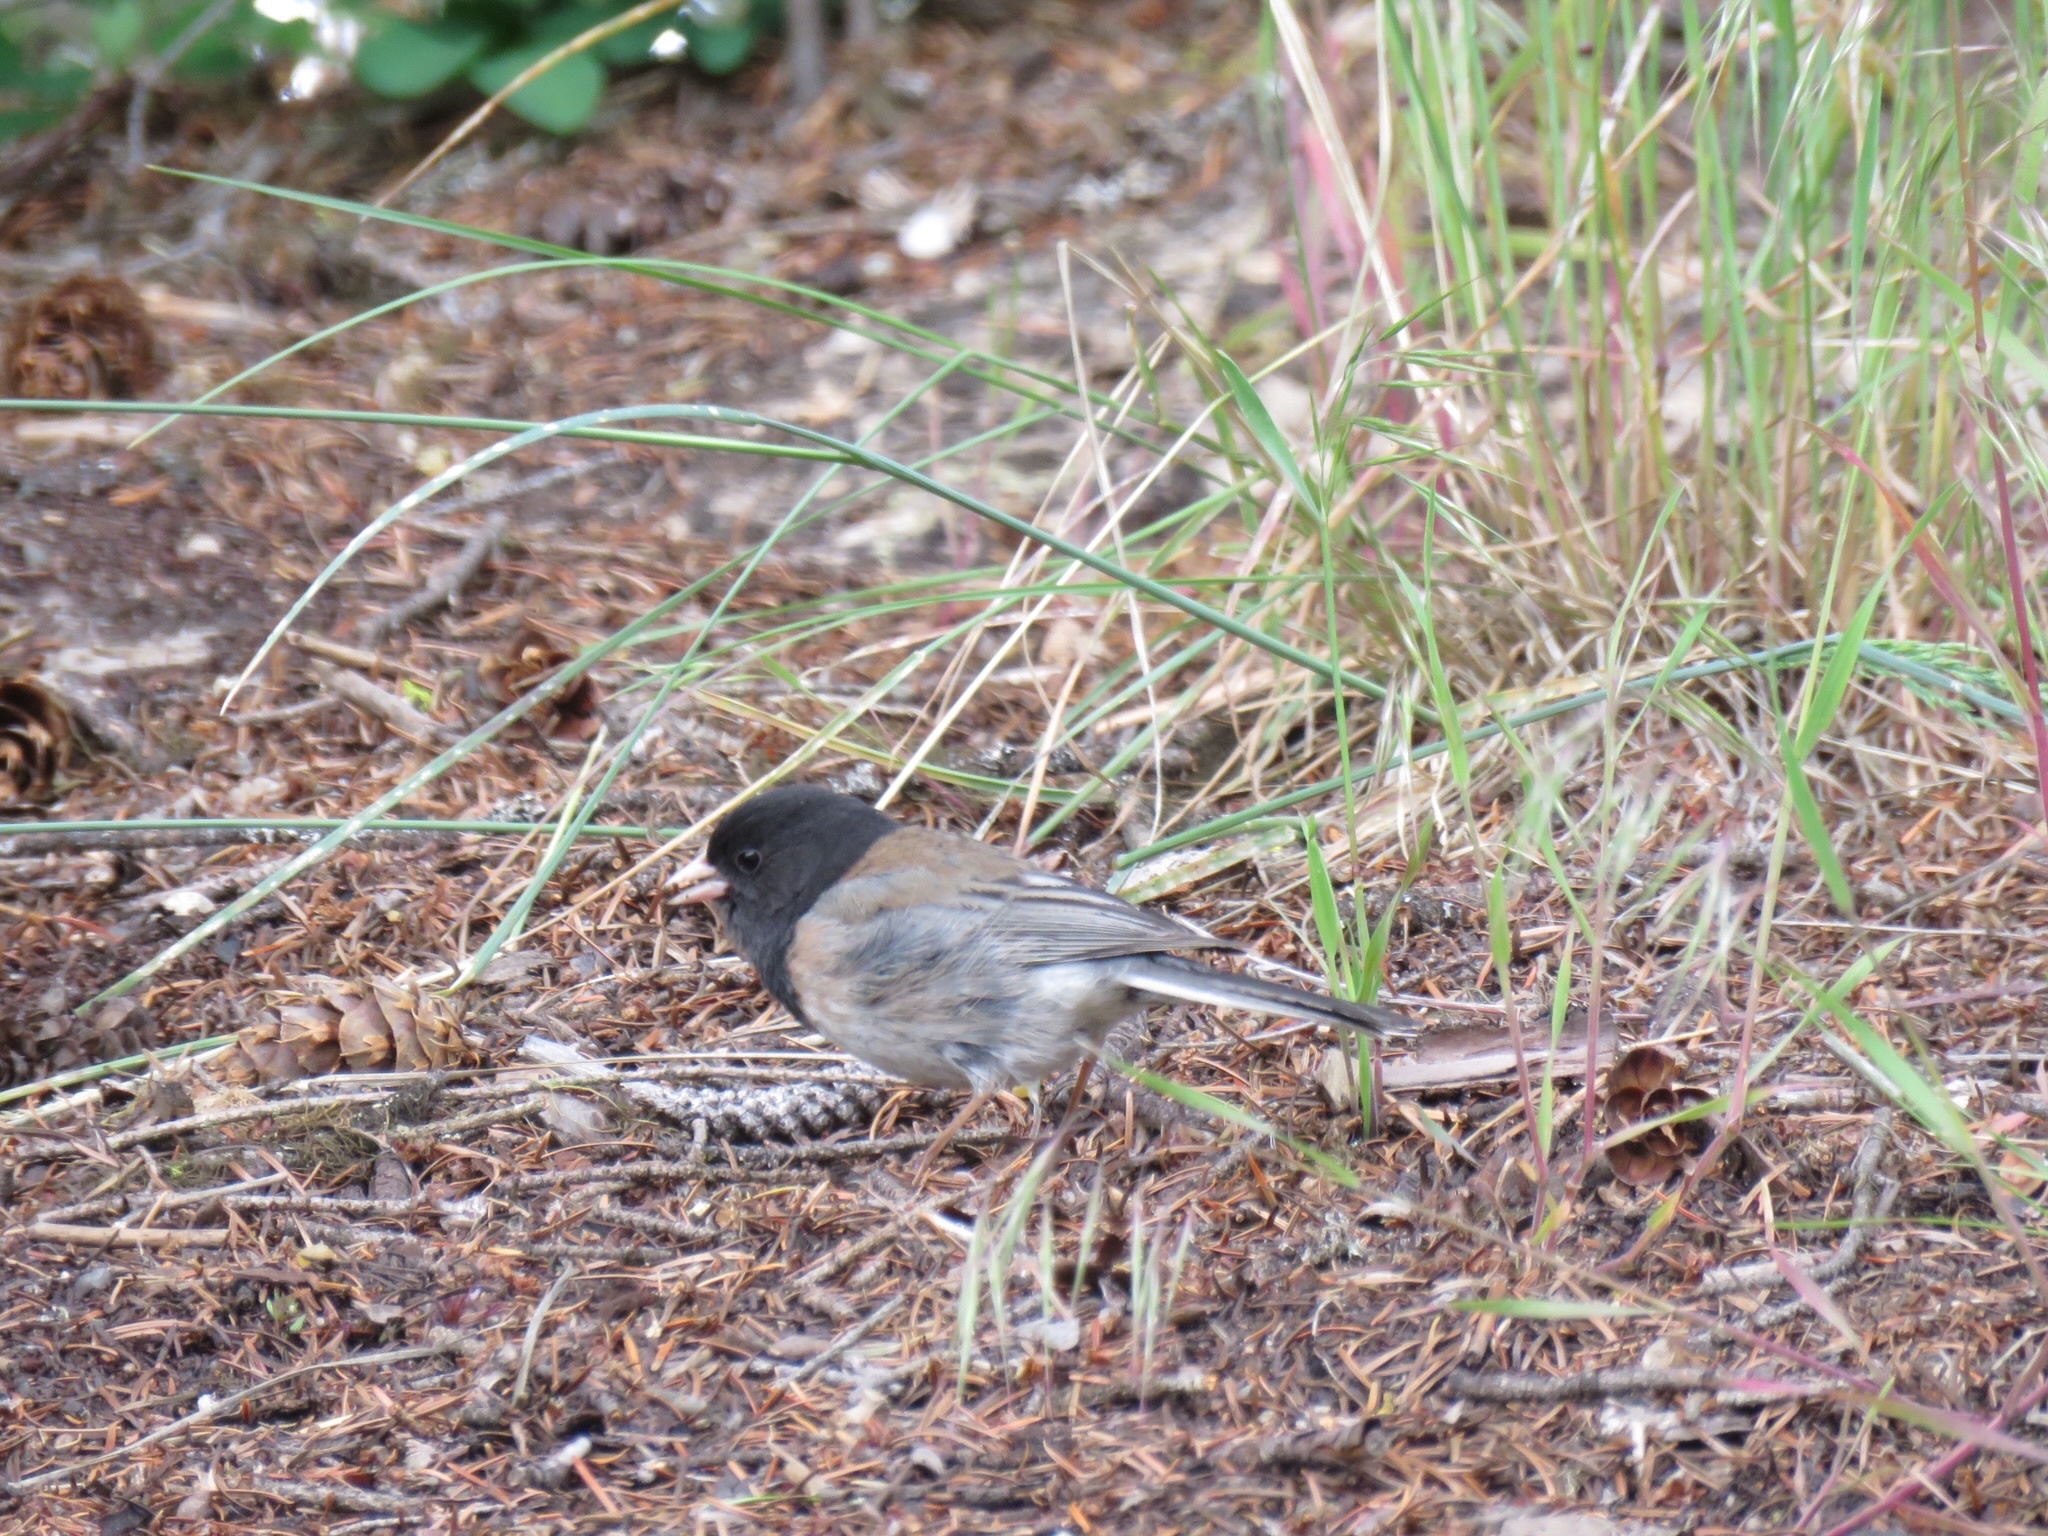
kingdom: Animalia
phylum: Chordata
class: Aves
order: Passeriformes
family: Passerellidae
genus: Junco
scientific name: Junco hyemalis
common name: Dark-eyed junco
